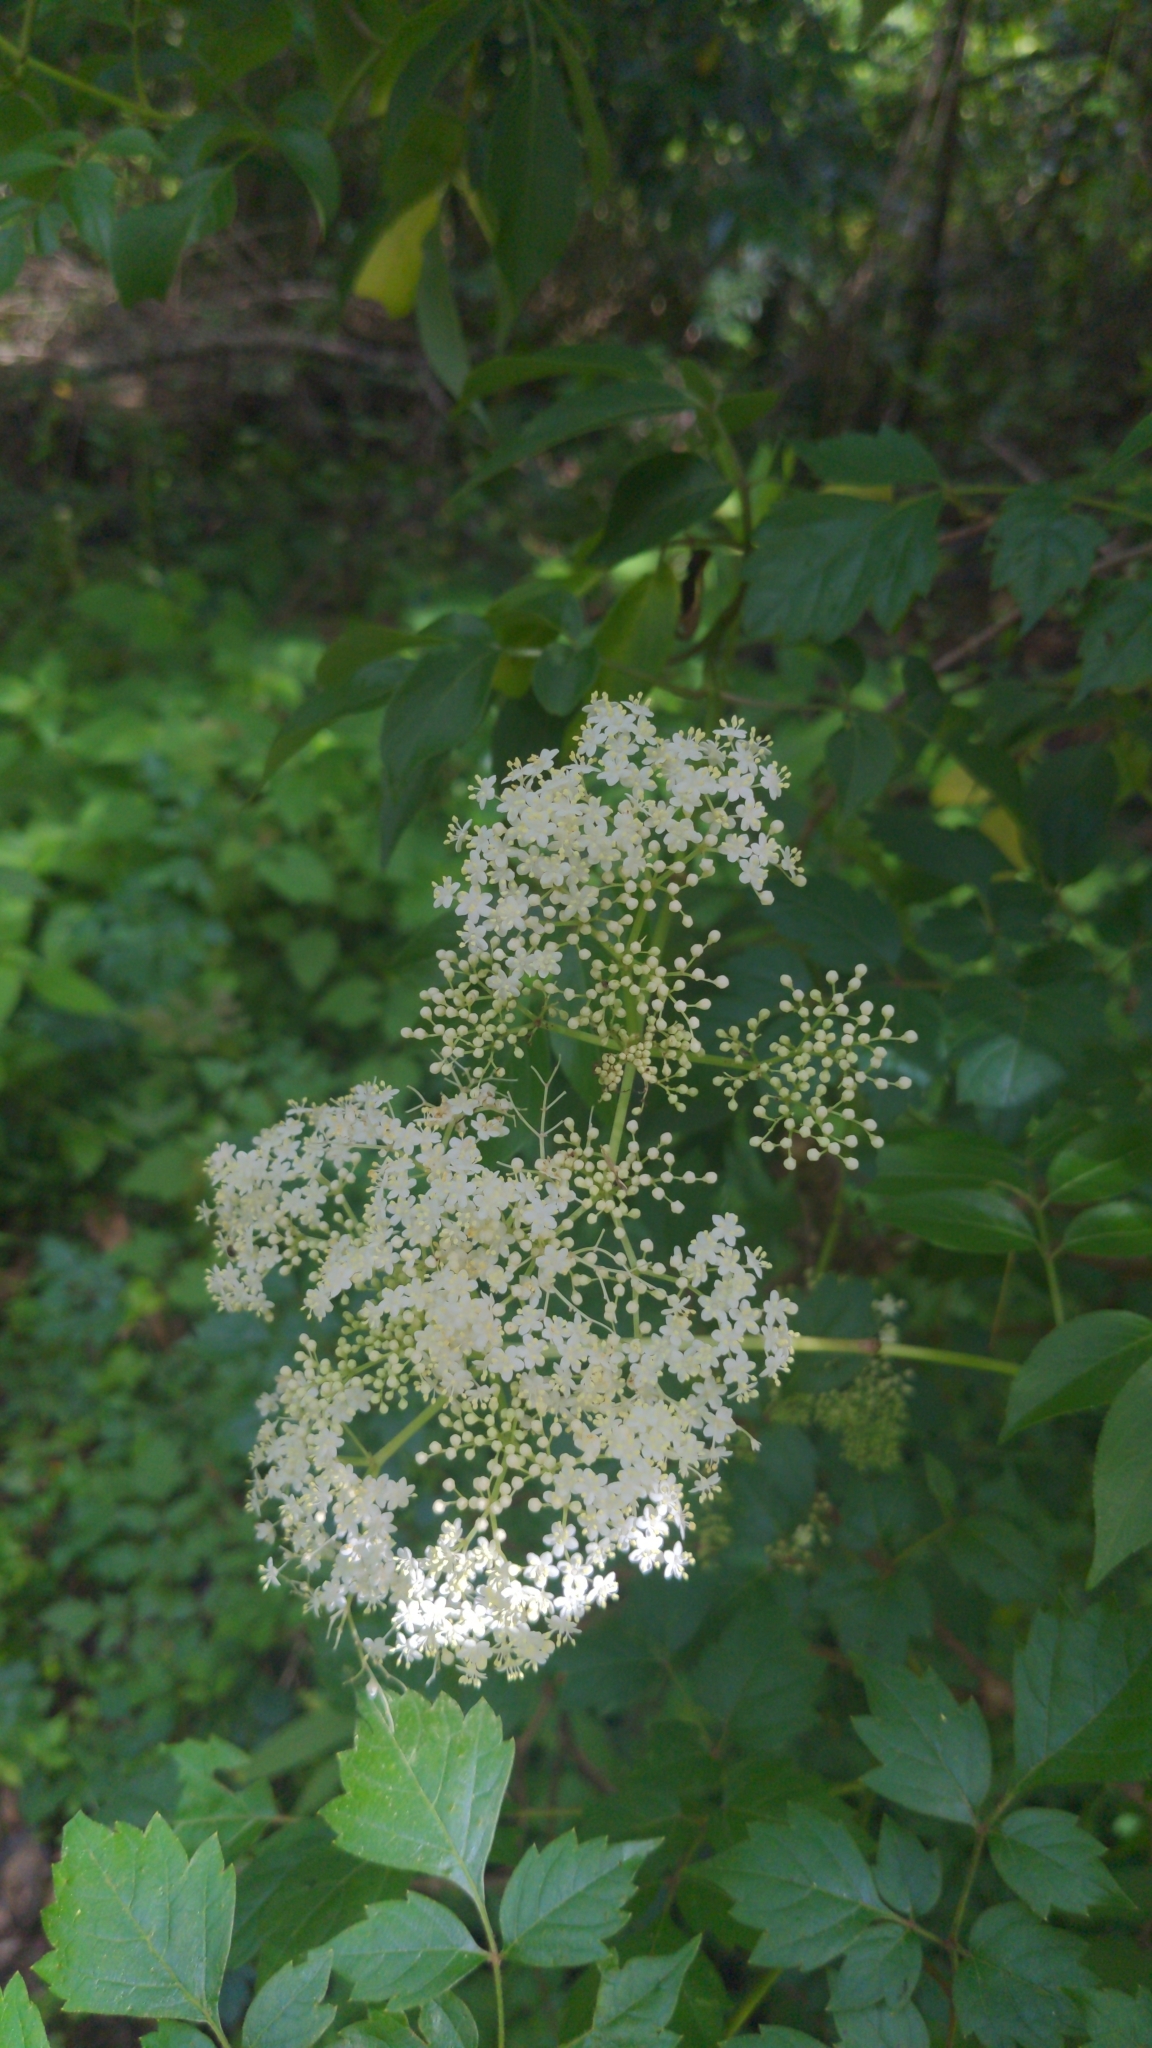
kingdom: Plantae
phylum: Tracheophyta
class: Magnoliopsida
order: Dipsacales
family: Viburnaceae
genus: Sambucus
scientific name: Sambucus canadensis
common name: American elder
